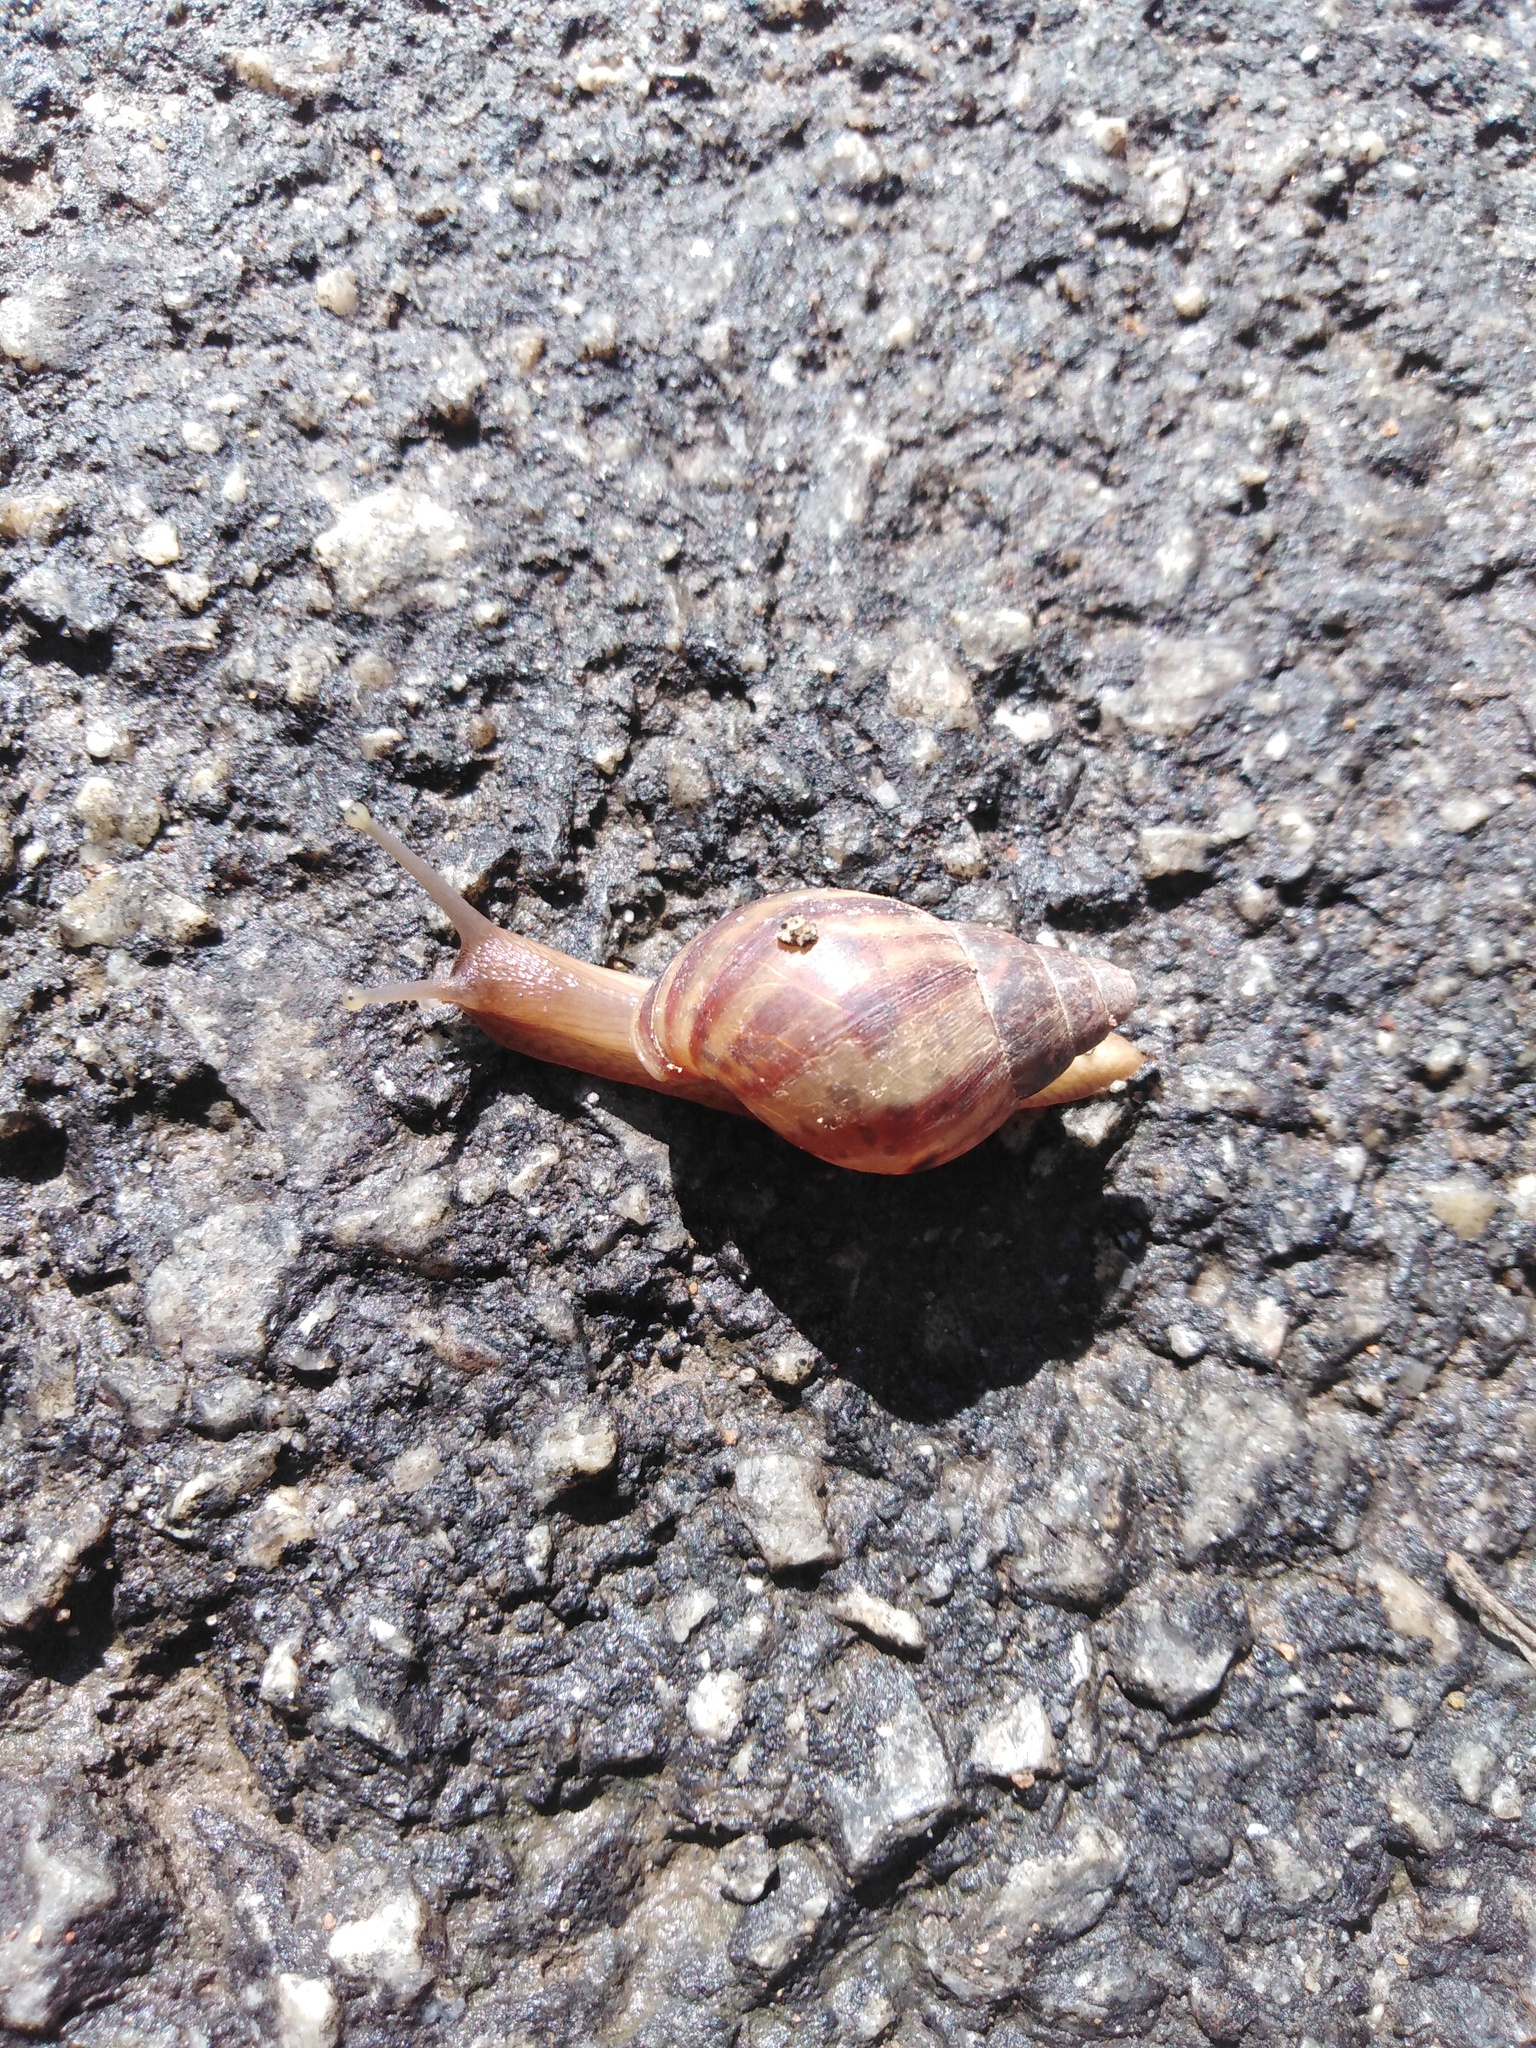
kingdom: Animalia
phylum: Mollusca
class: Gastropoda
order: Stylommatophora
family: Achatinidae
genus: Lissachatina
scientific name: Lissachatina fulica
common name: Giant african snail
